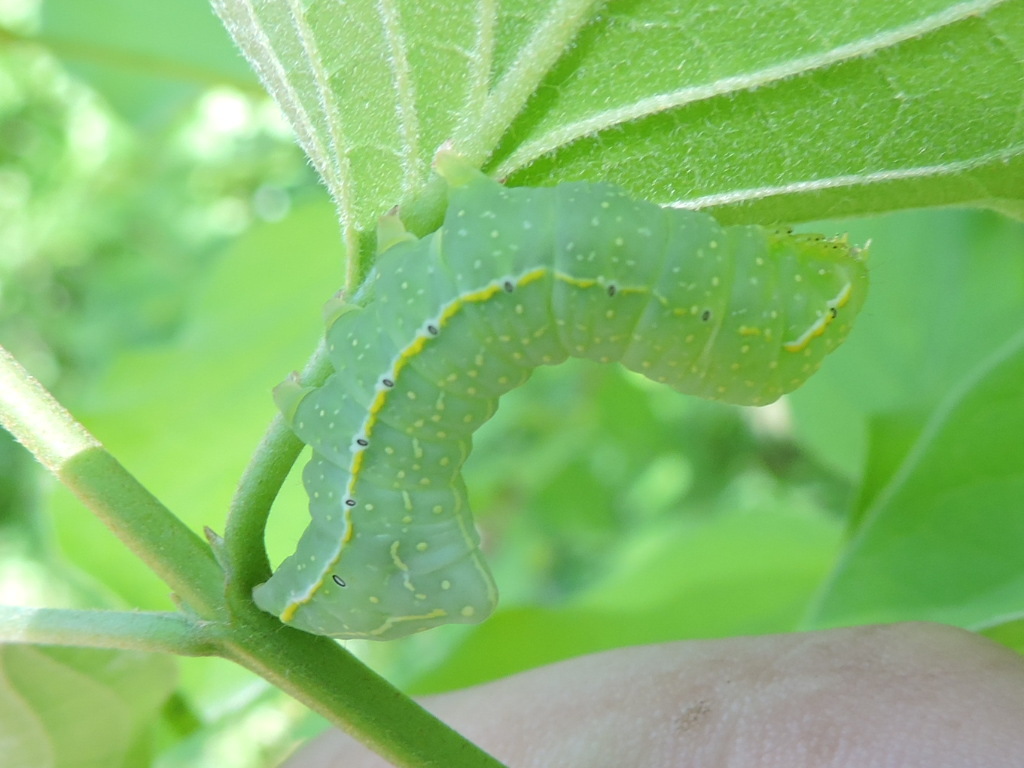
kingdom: Animalia
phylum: Arthropoda
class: Insecta
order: Lepidoptera
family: Noctuidae
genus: Amphipyra
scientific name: Amphipyra pyramidoides
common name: American copper underwing
